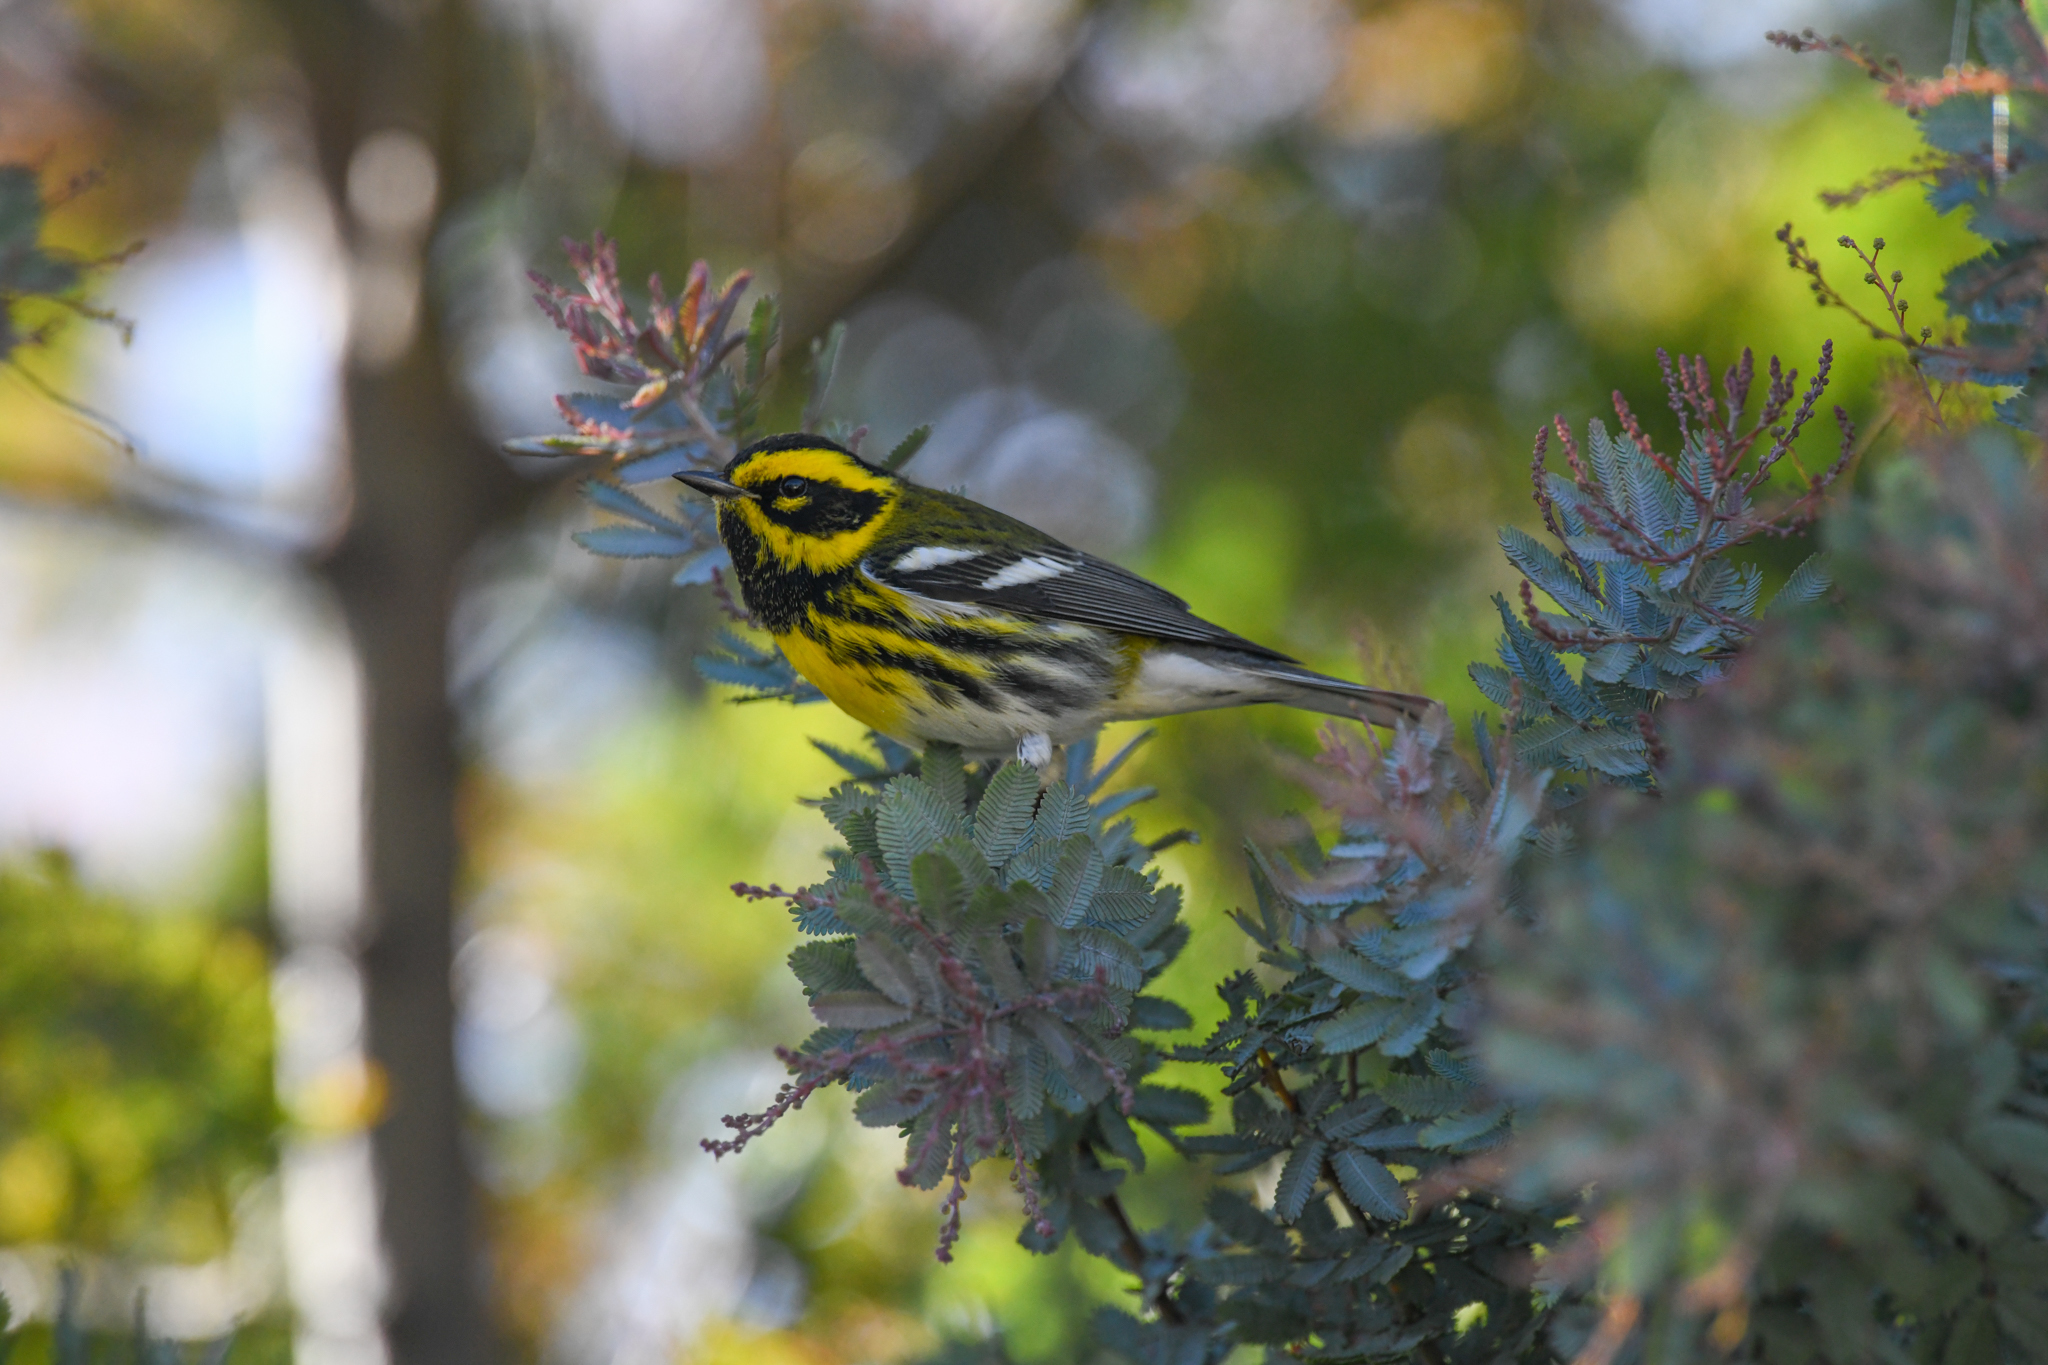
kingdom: Animalia
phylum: Chordata
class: Aves
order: Passeriformes
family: Parulidae
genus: Setophaga
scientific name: Setophaga townsendi
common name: Townsend's warbler
